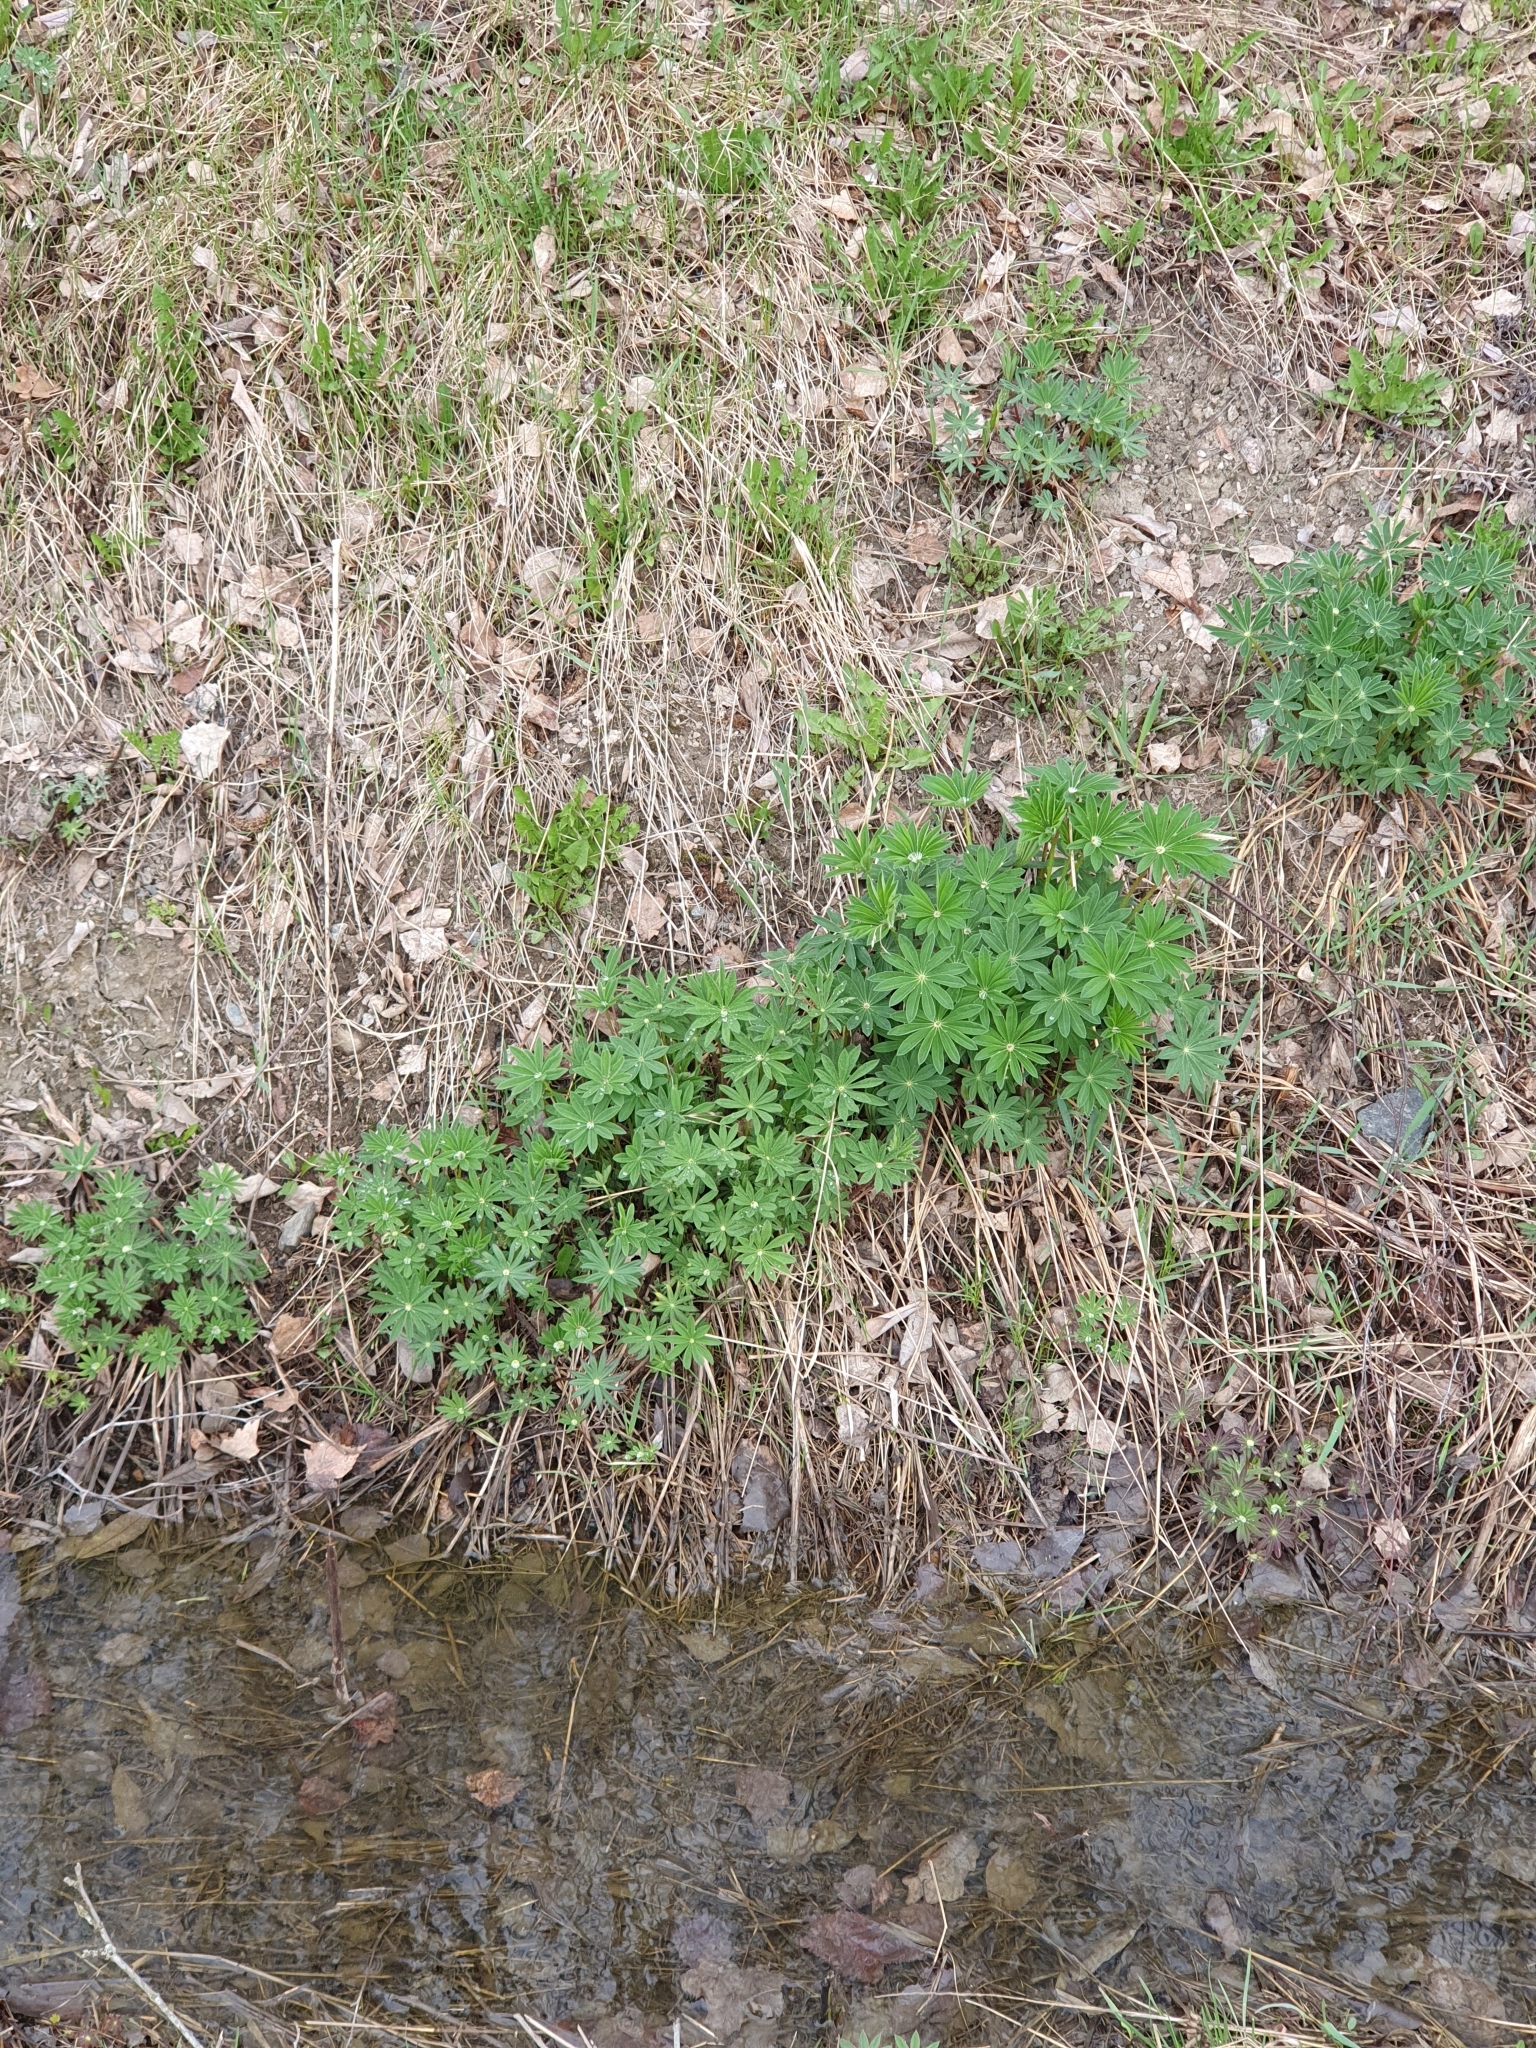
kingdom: Plantae
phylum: Tracheophyta
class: Magnoliopsida
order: Fabales
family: Fabaceae
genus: Lupinus
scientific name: Lupinus polyphyllus
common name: Garden lupin
